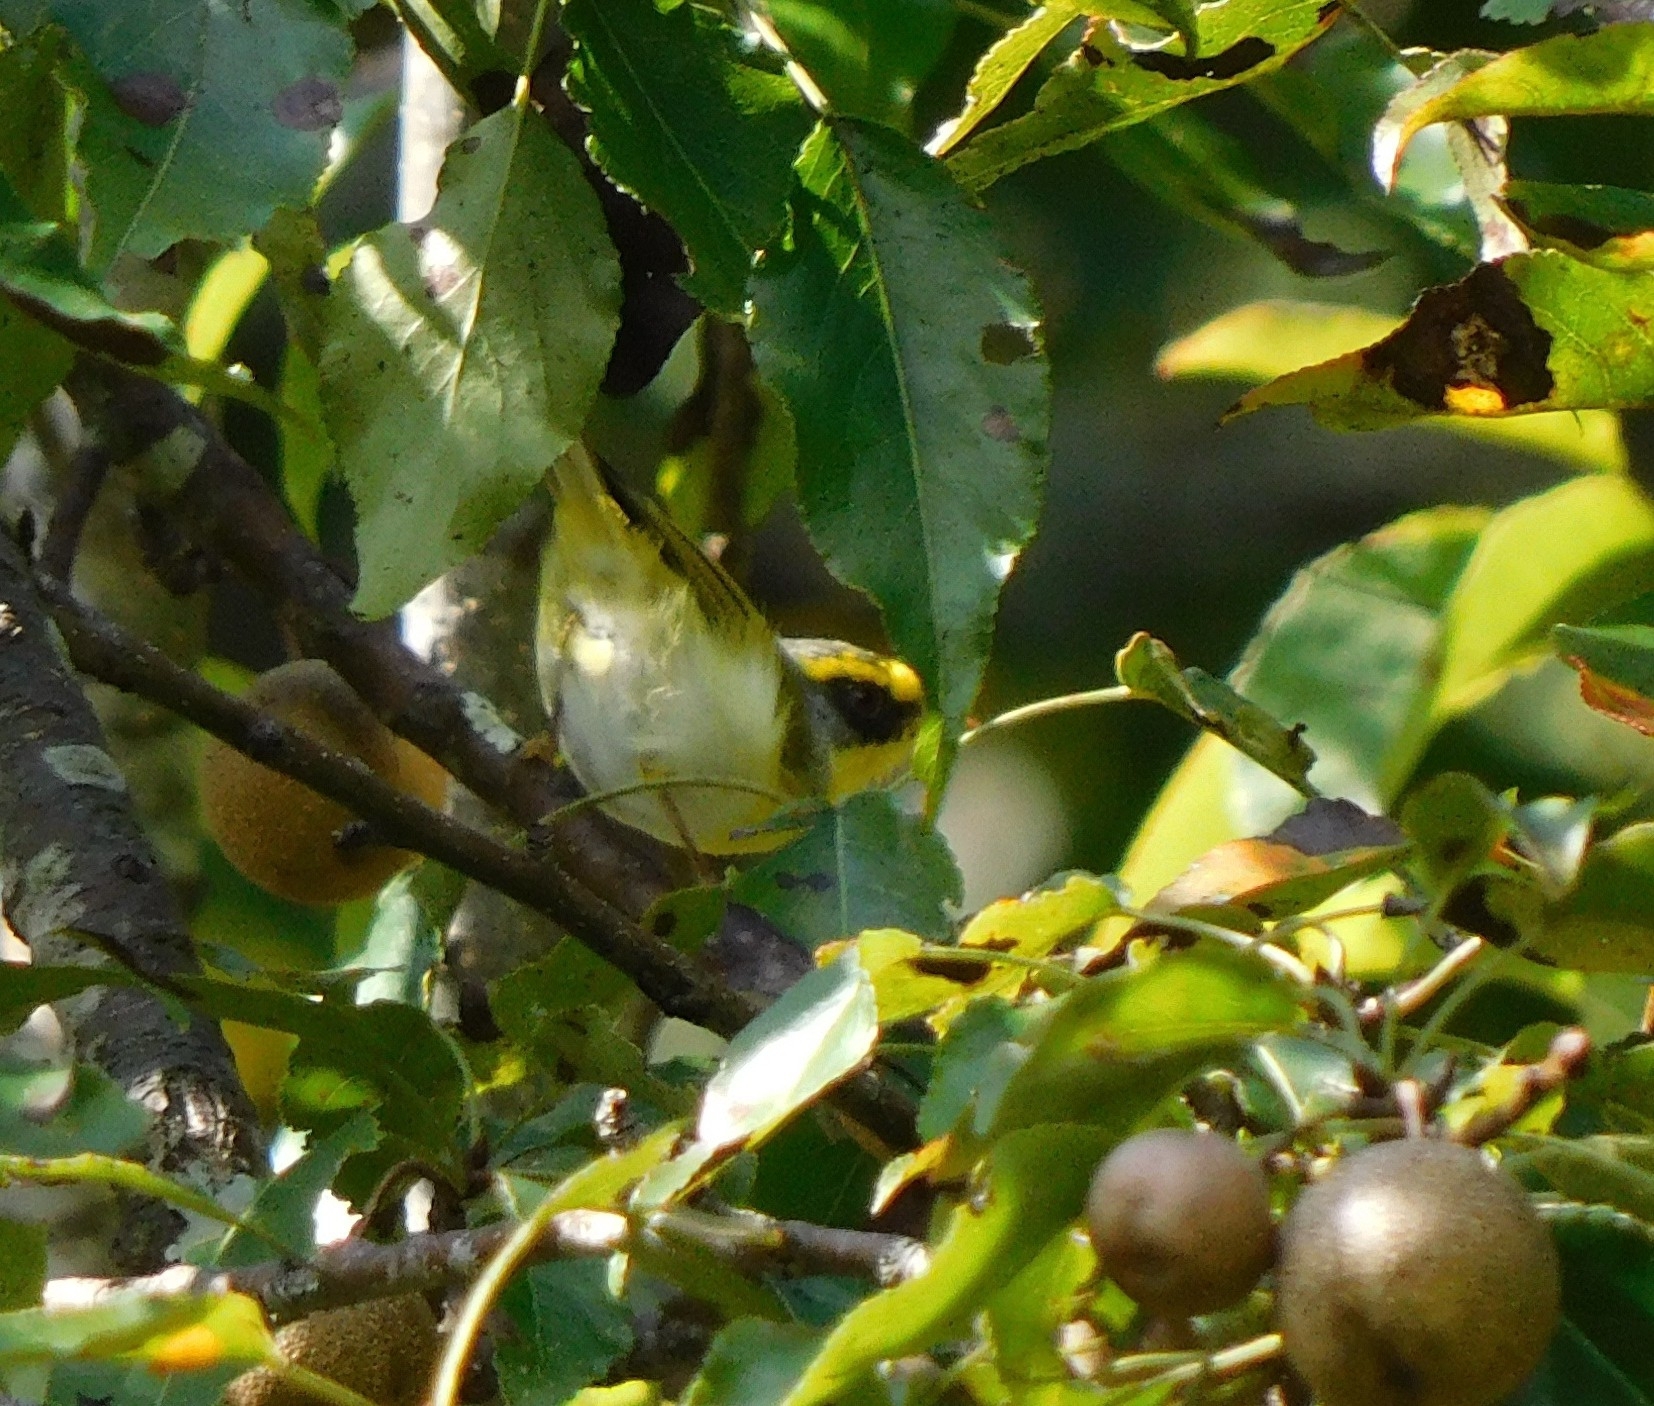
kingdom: Animalia
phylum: Chordata
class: Aves
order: Passeriformes
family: Cettiidae
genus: Abroscopus
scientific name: Abroscopus schisticeps
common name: Black-faced warbler
